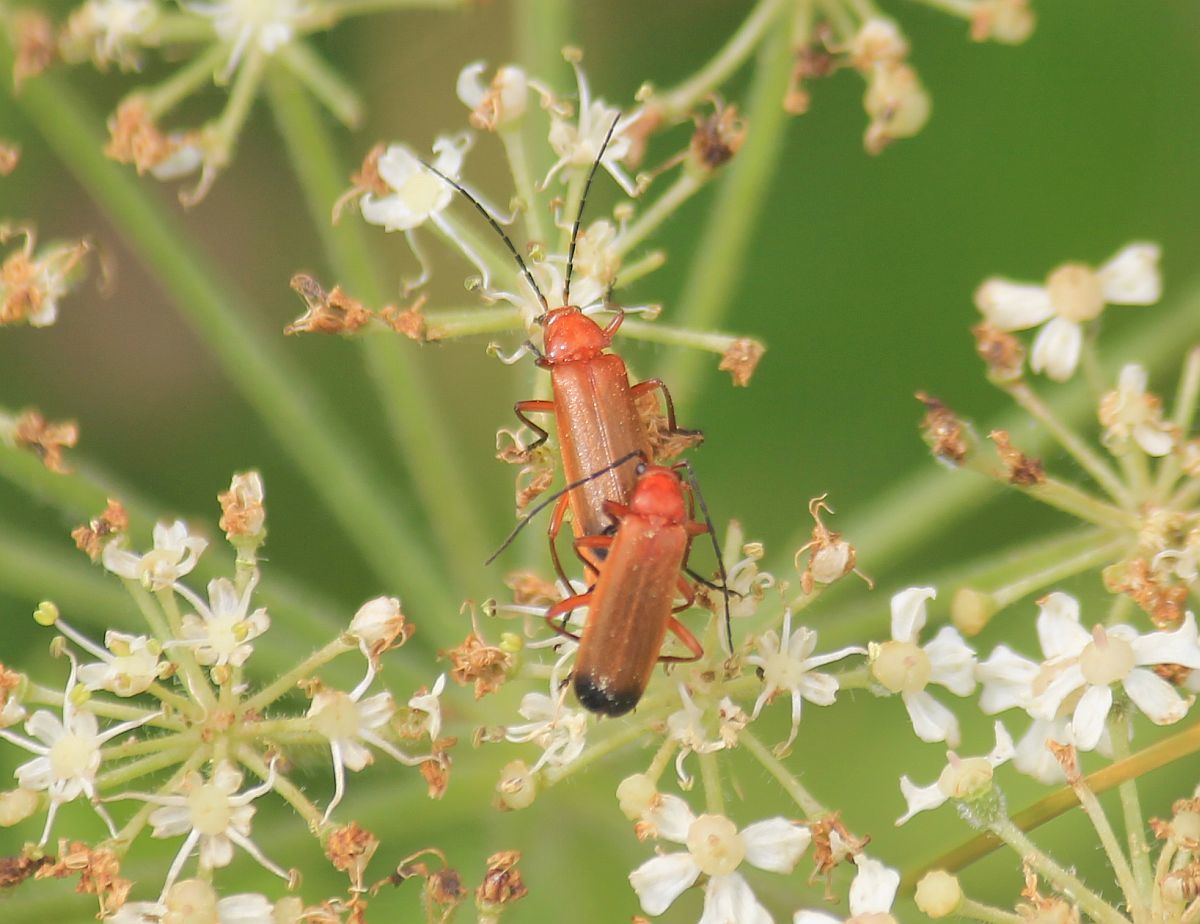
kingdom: Animalia
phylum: Arthropoda
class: Insecta
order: Coleoptera
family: Cantharidae
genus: Rhagonycha
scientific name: Rhagonycha fulva
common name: Common red soldier beetle
